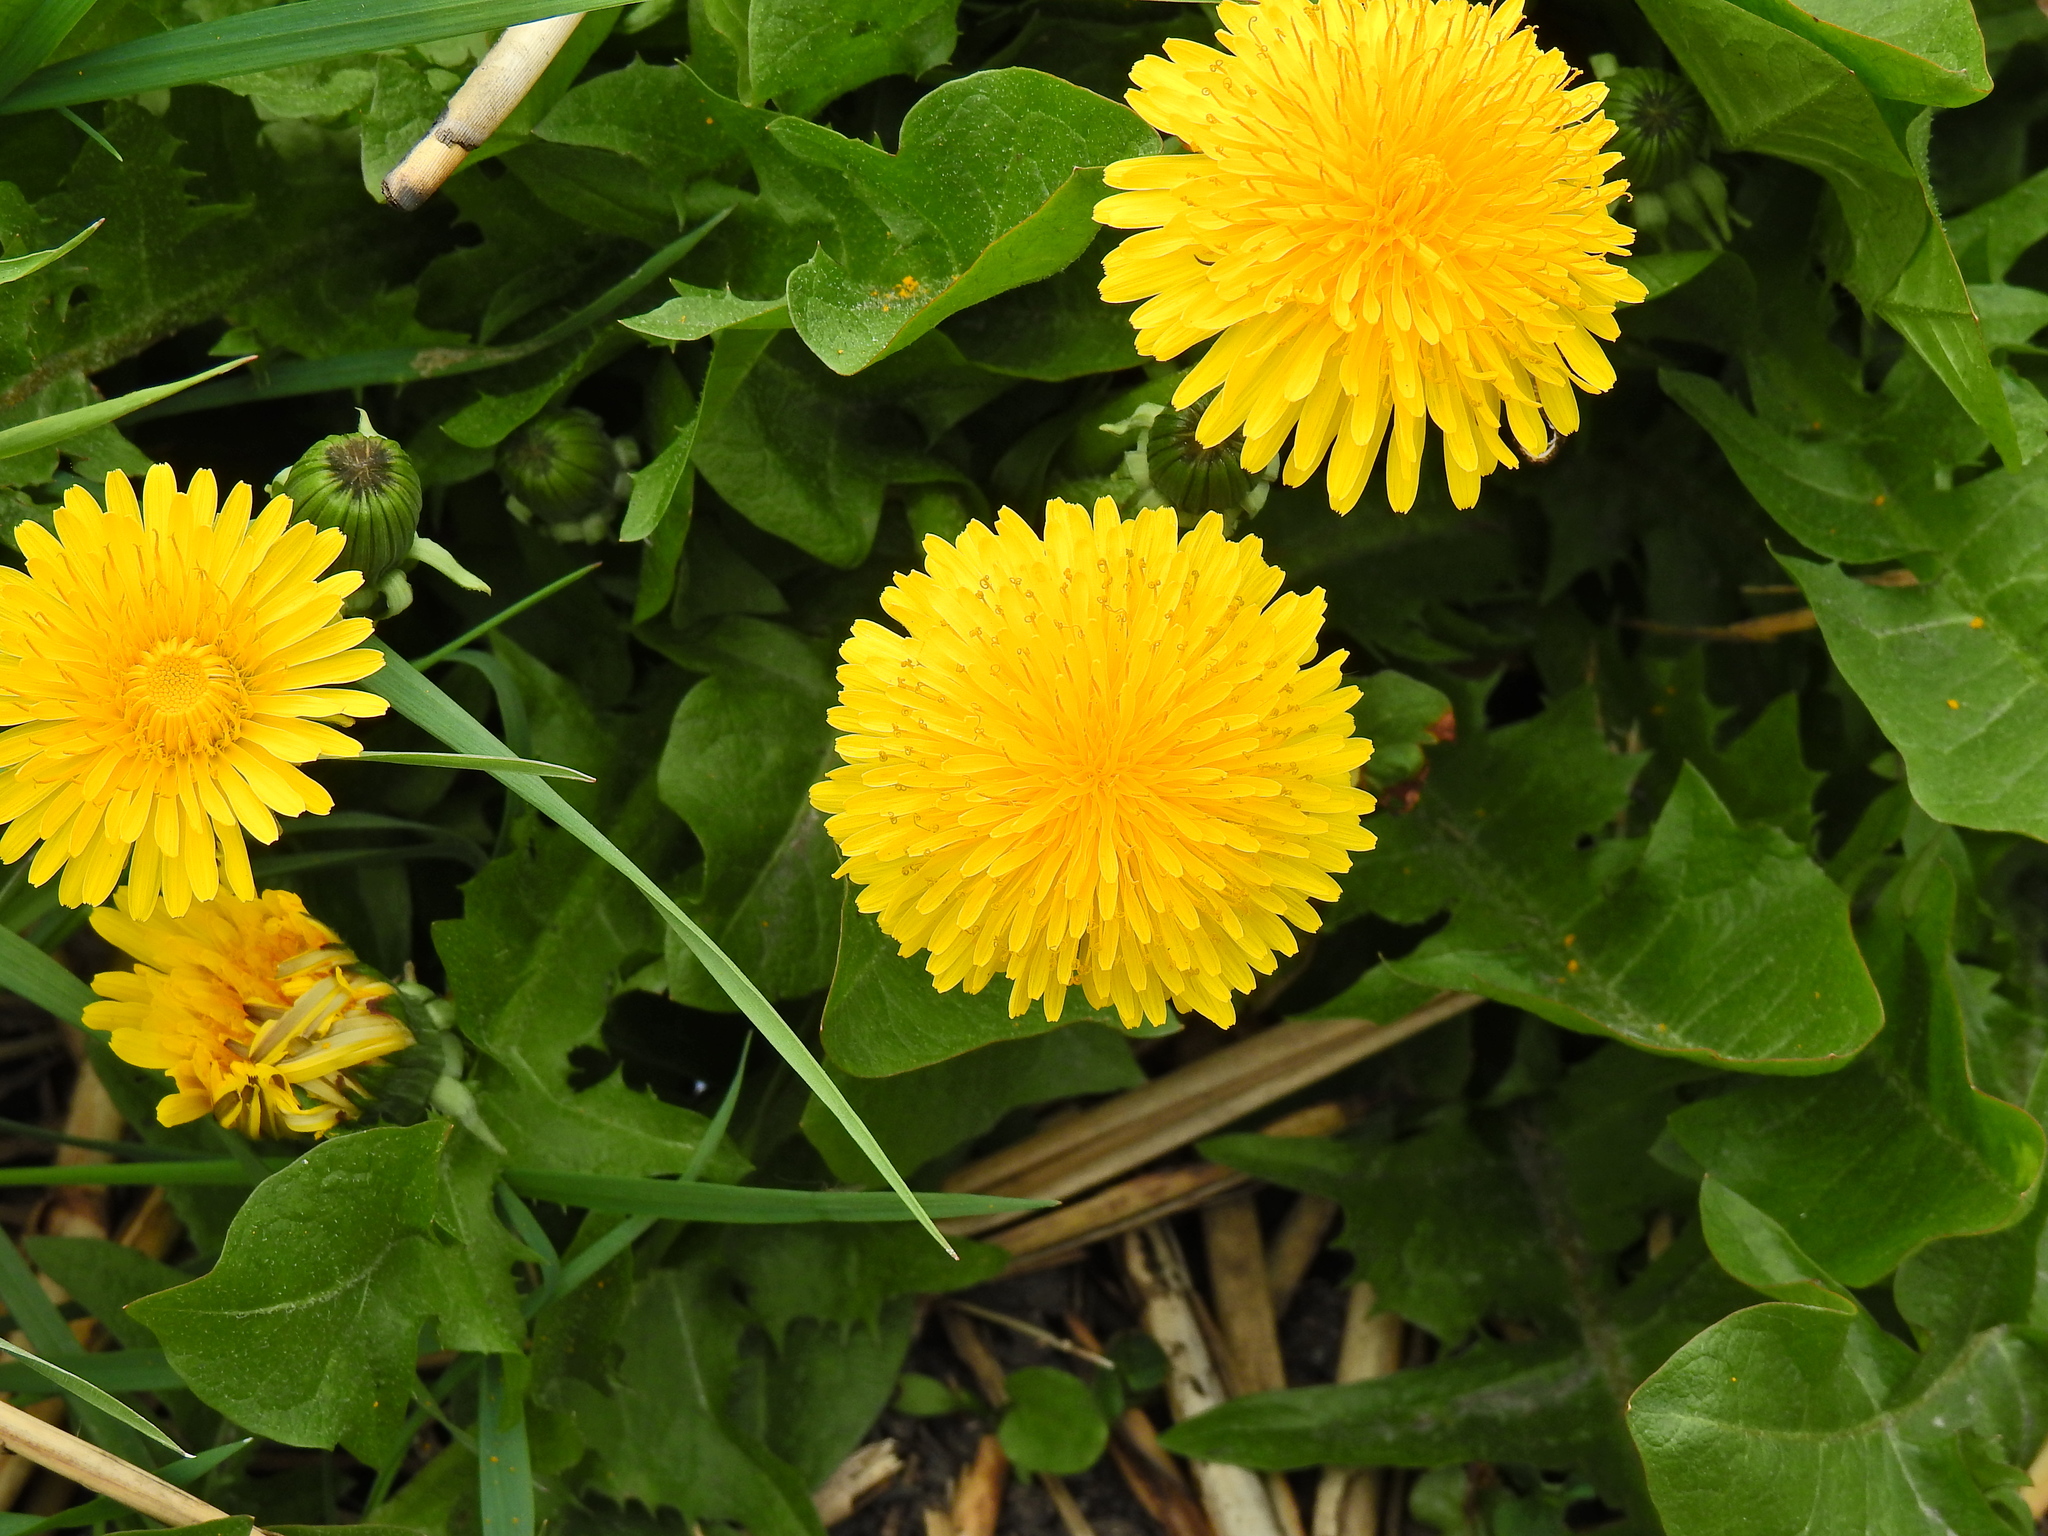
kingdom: Plantae
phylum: Tracheophyta
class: Magnoliopsida
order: Asterales
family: Asteraceae
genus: Taraxacum
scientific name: Taraxacum officinale
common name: Common dandelion
